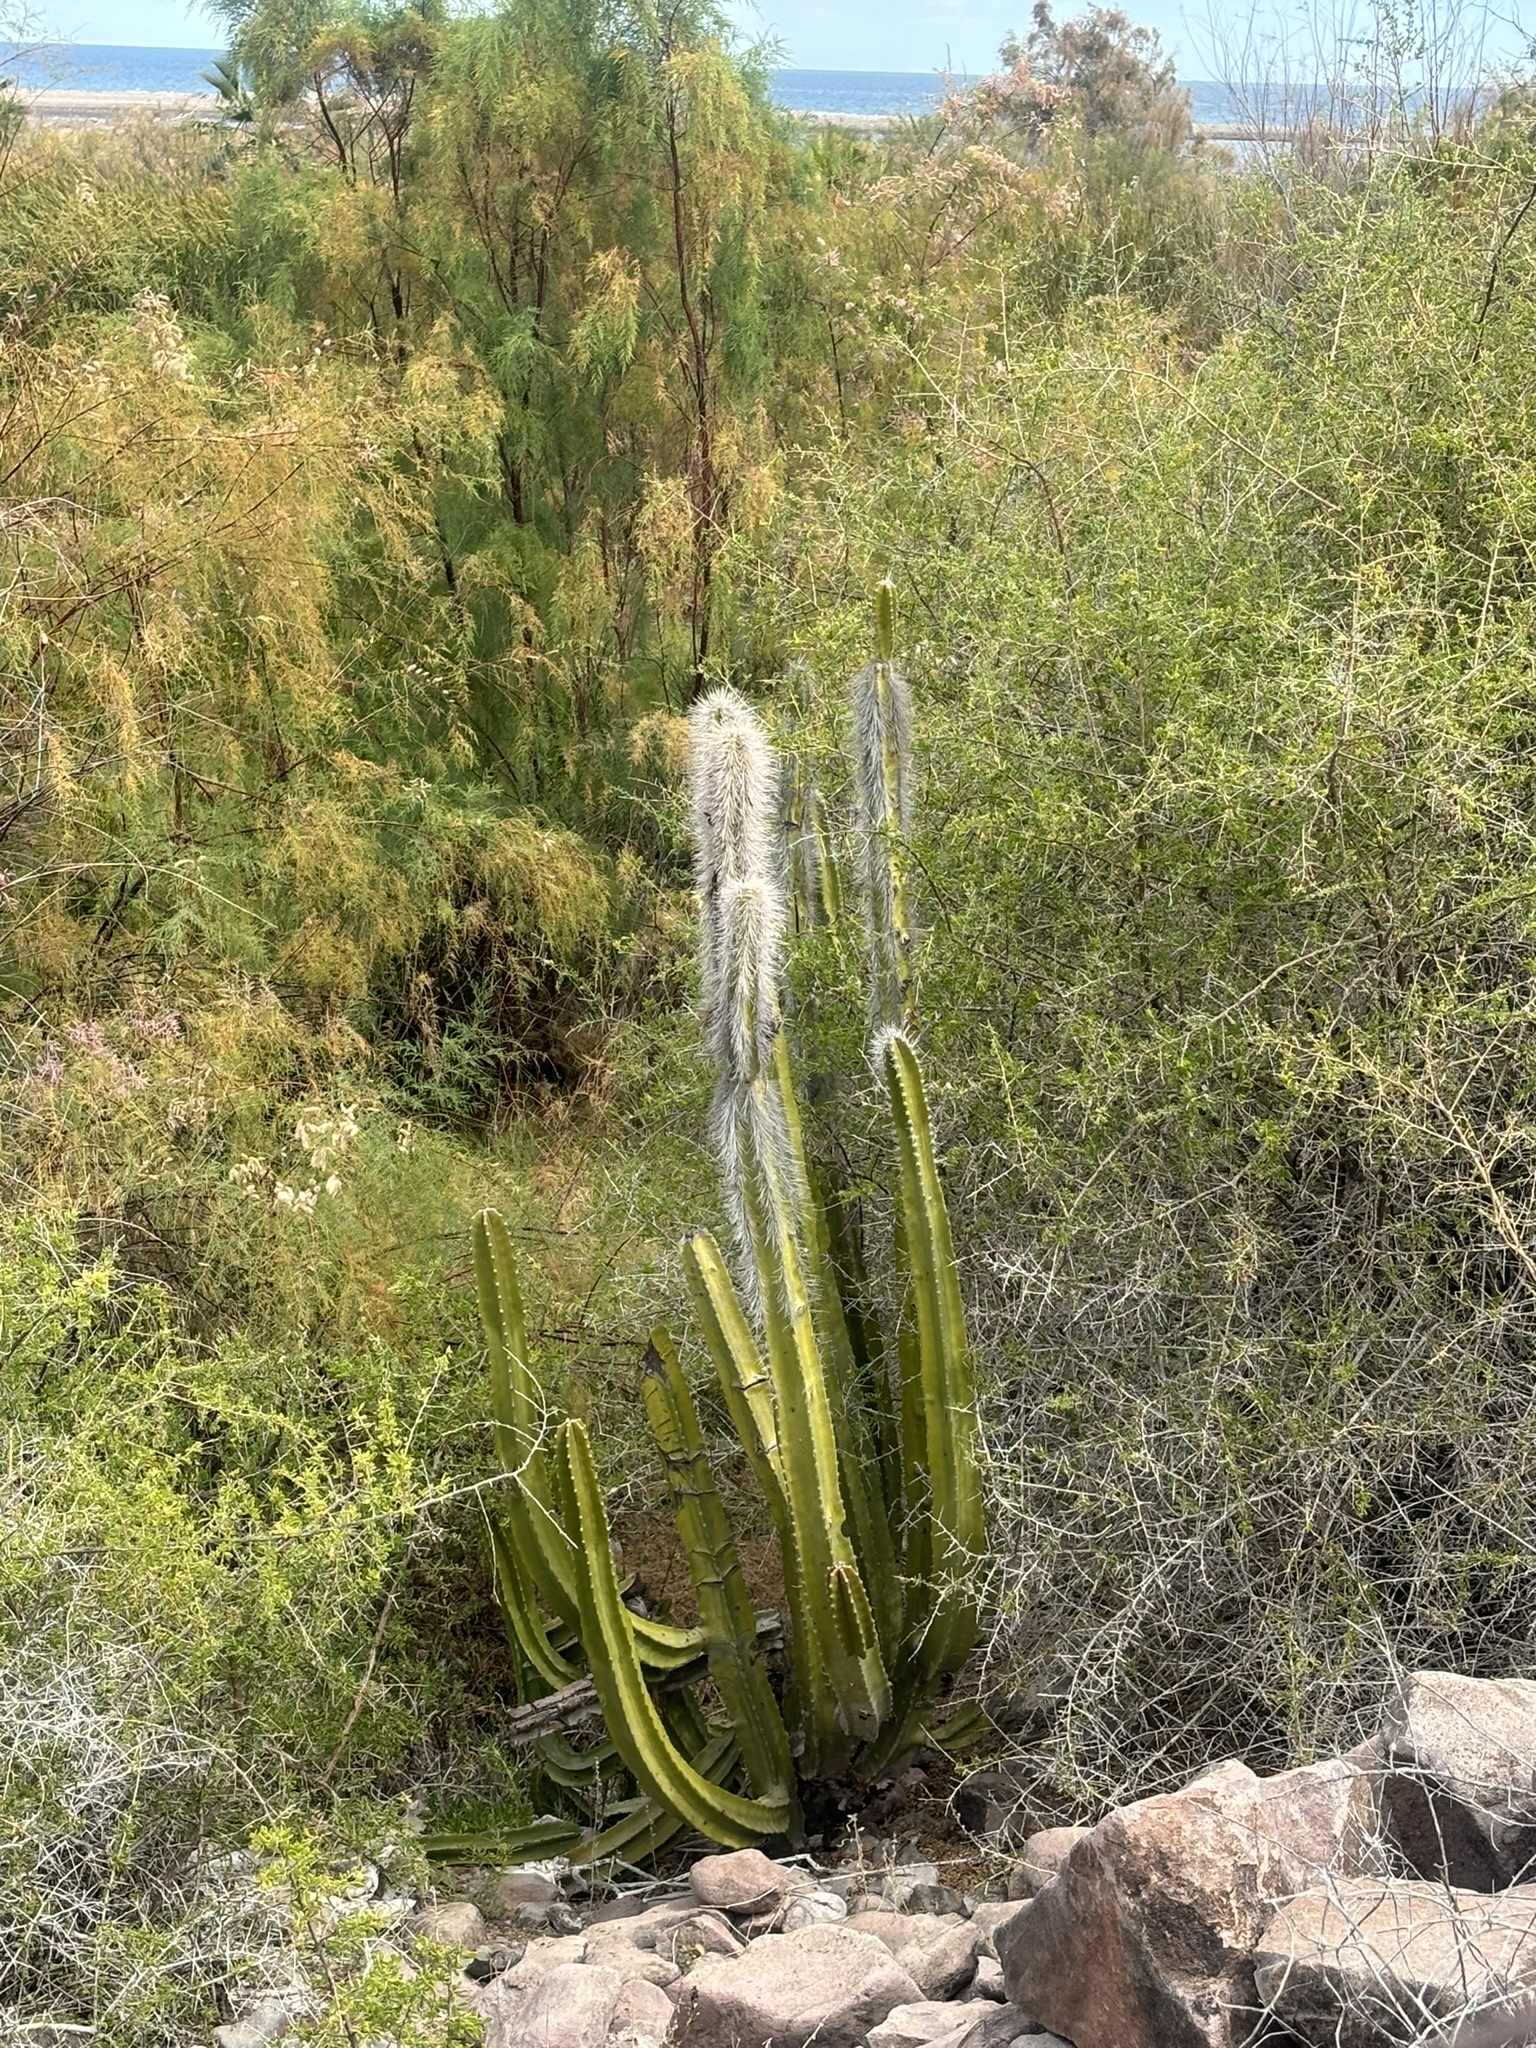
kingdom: Plantae
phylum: Tracheophyta
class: Magnoliopsida
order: Caryophyllales
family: Cactaceae
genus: Pachycereus
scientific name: Pachycereus schottii
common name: Senita cactus
